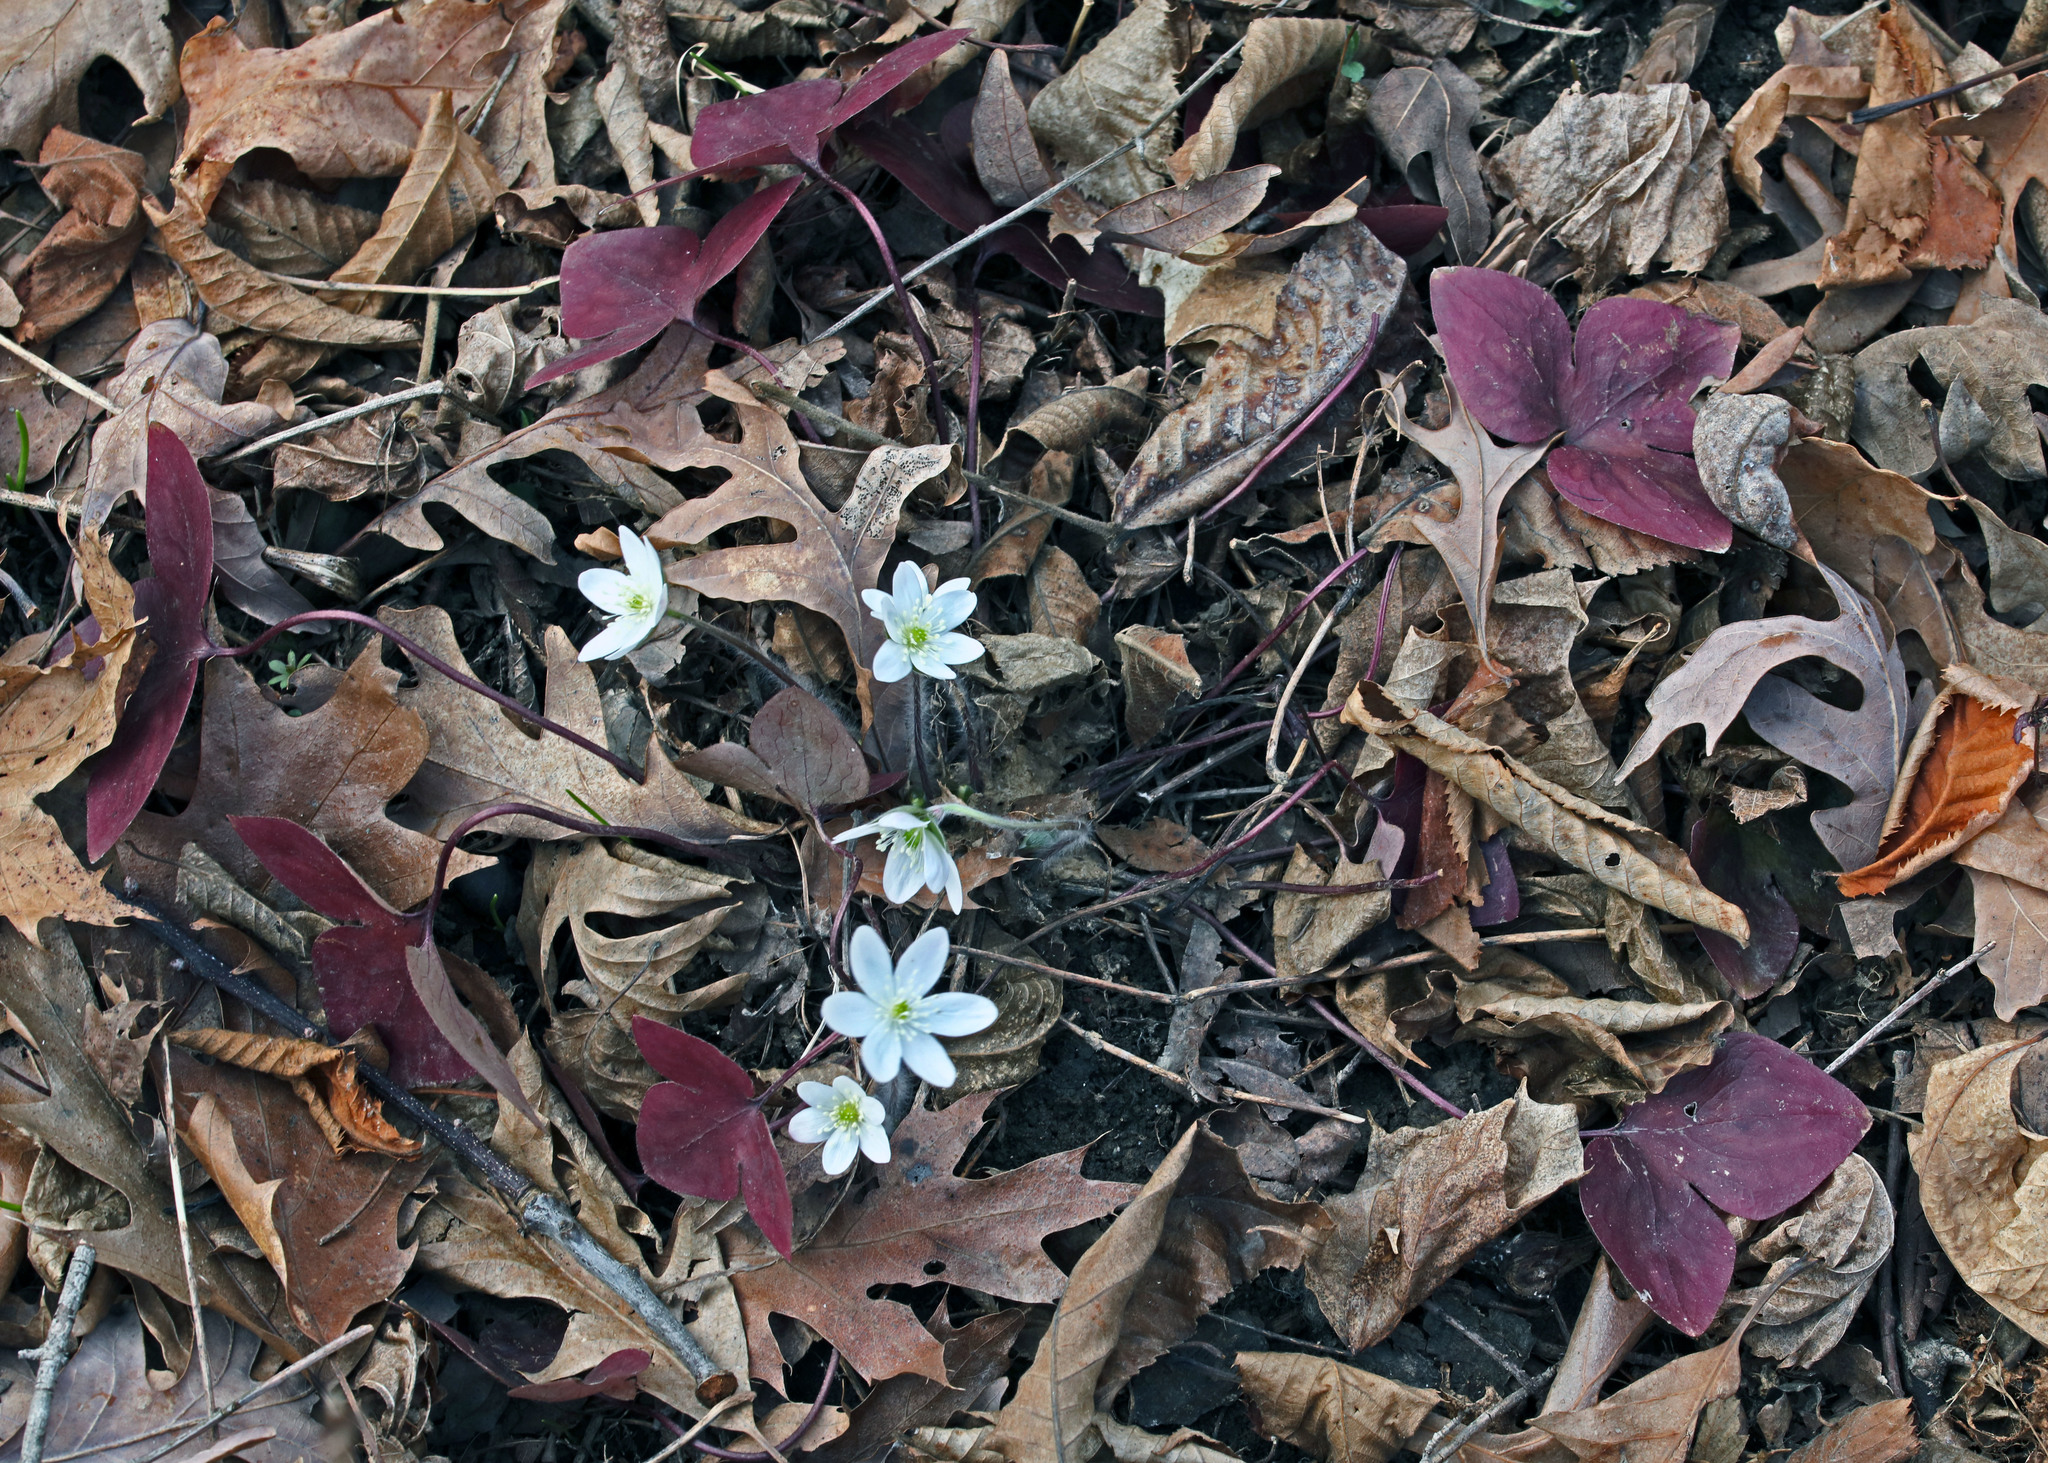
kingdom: Plantae
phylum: Tracheophyta
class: Magnoliopsida
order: Ranunculales
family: Ranunculaceae
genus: Hepatica
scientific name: Hepatica acutiloba
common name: Sharp-lobed hepatica
